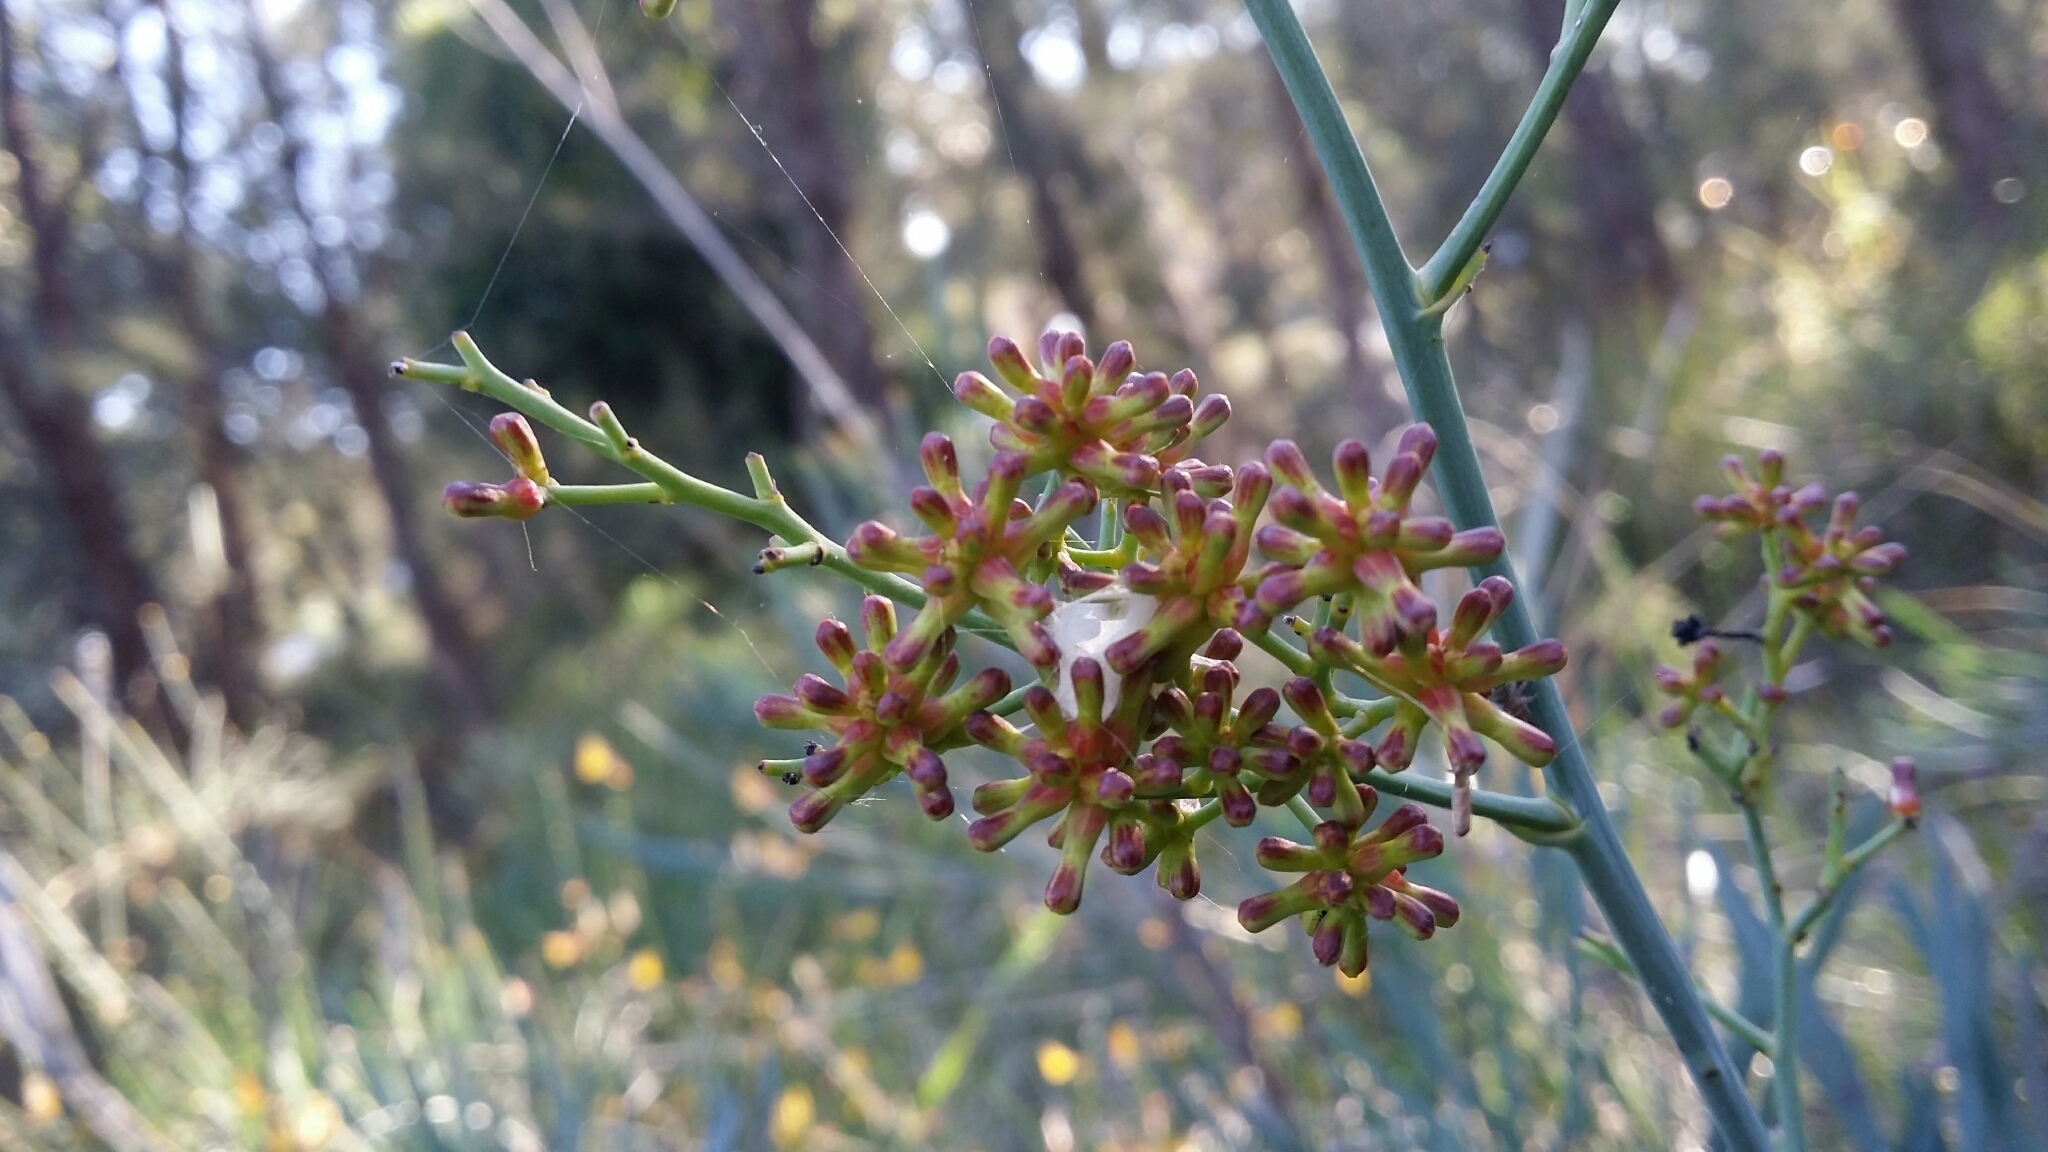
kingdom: Plantae
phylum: Tracheophyta
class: Magnoliopsida
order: Proteales
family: Proteaceae
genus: Stirlingia
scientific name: Stirlingia latifolia
